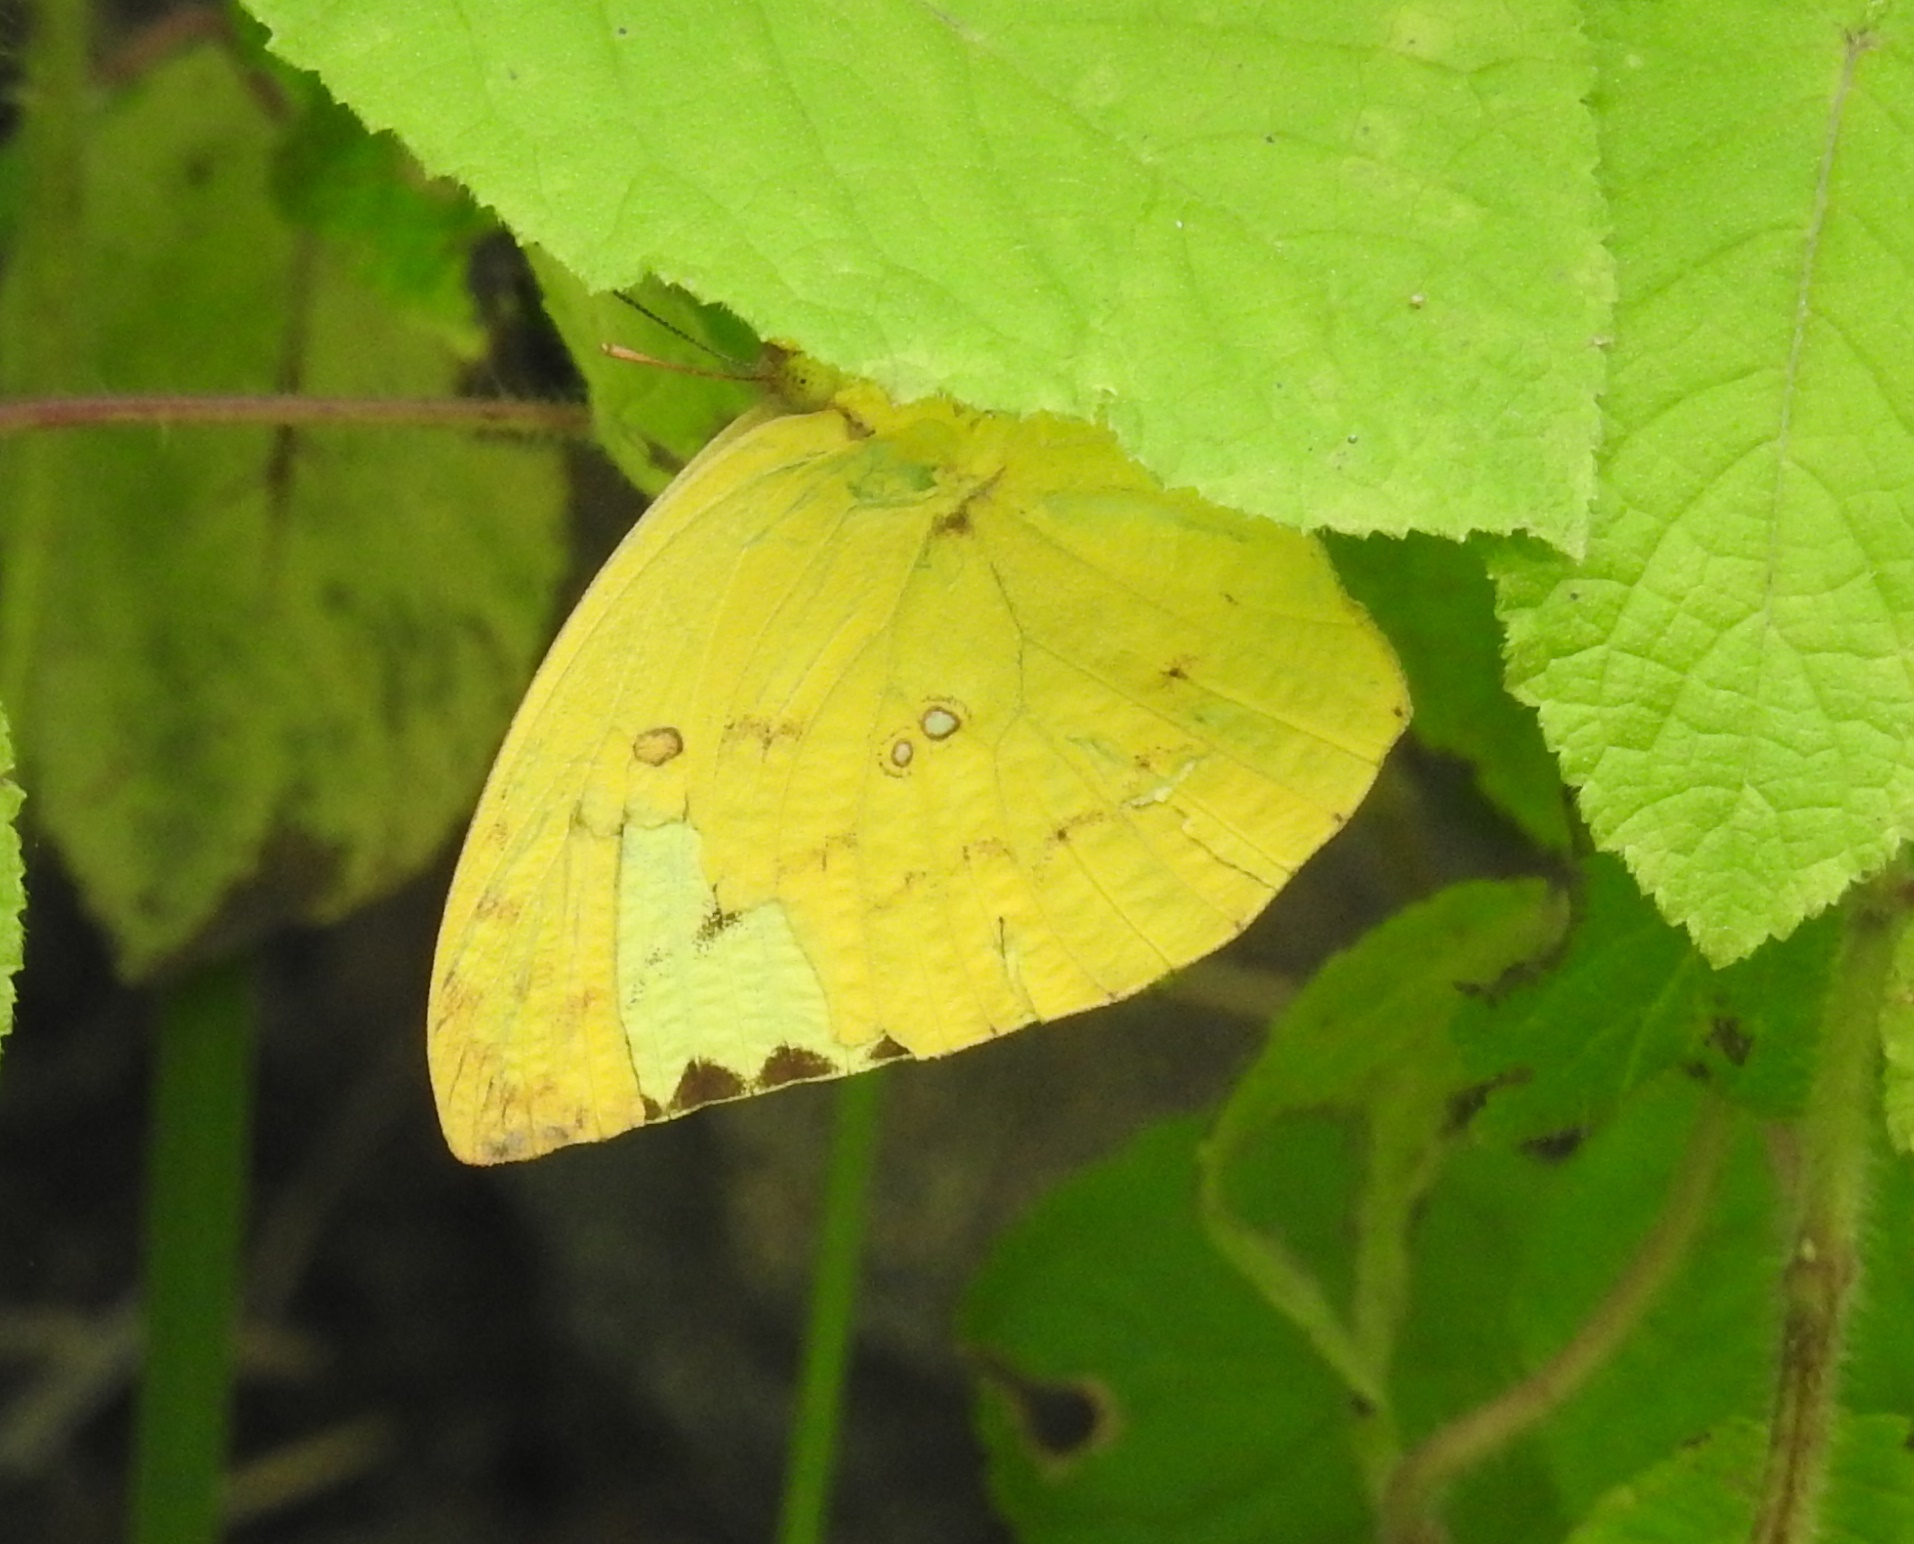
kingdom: Animalia
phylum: Arthropoda
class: Insecta
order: Lepidoptera
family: Pieridae
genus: Catopsilia
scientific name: Catopsilia pomona
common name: Common emigrant
